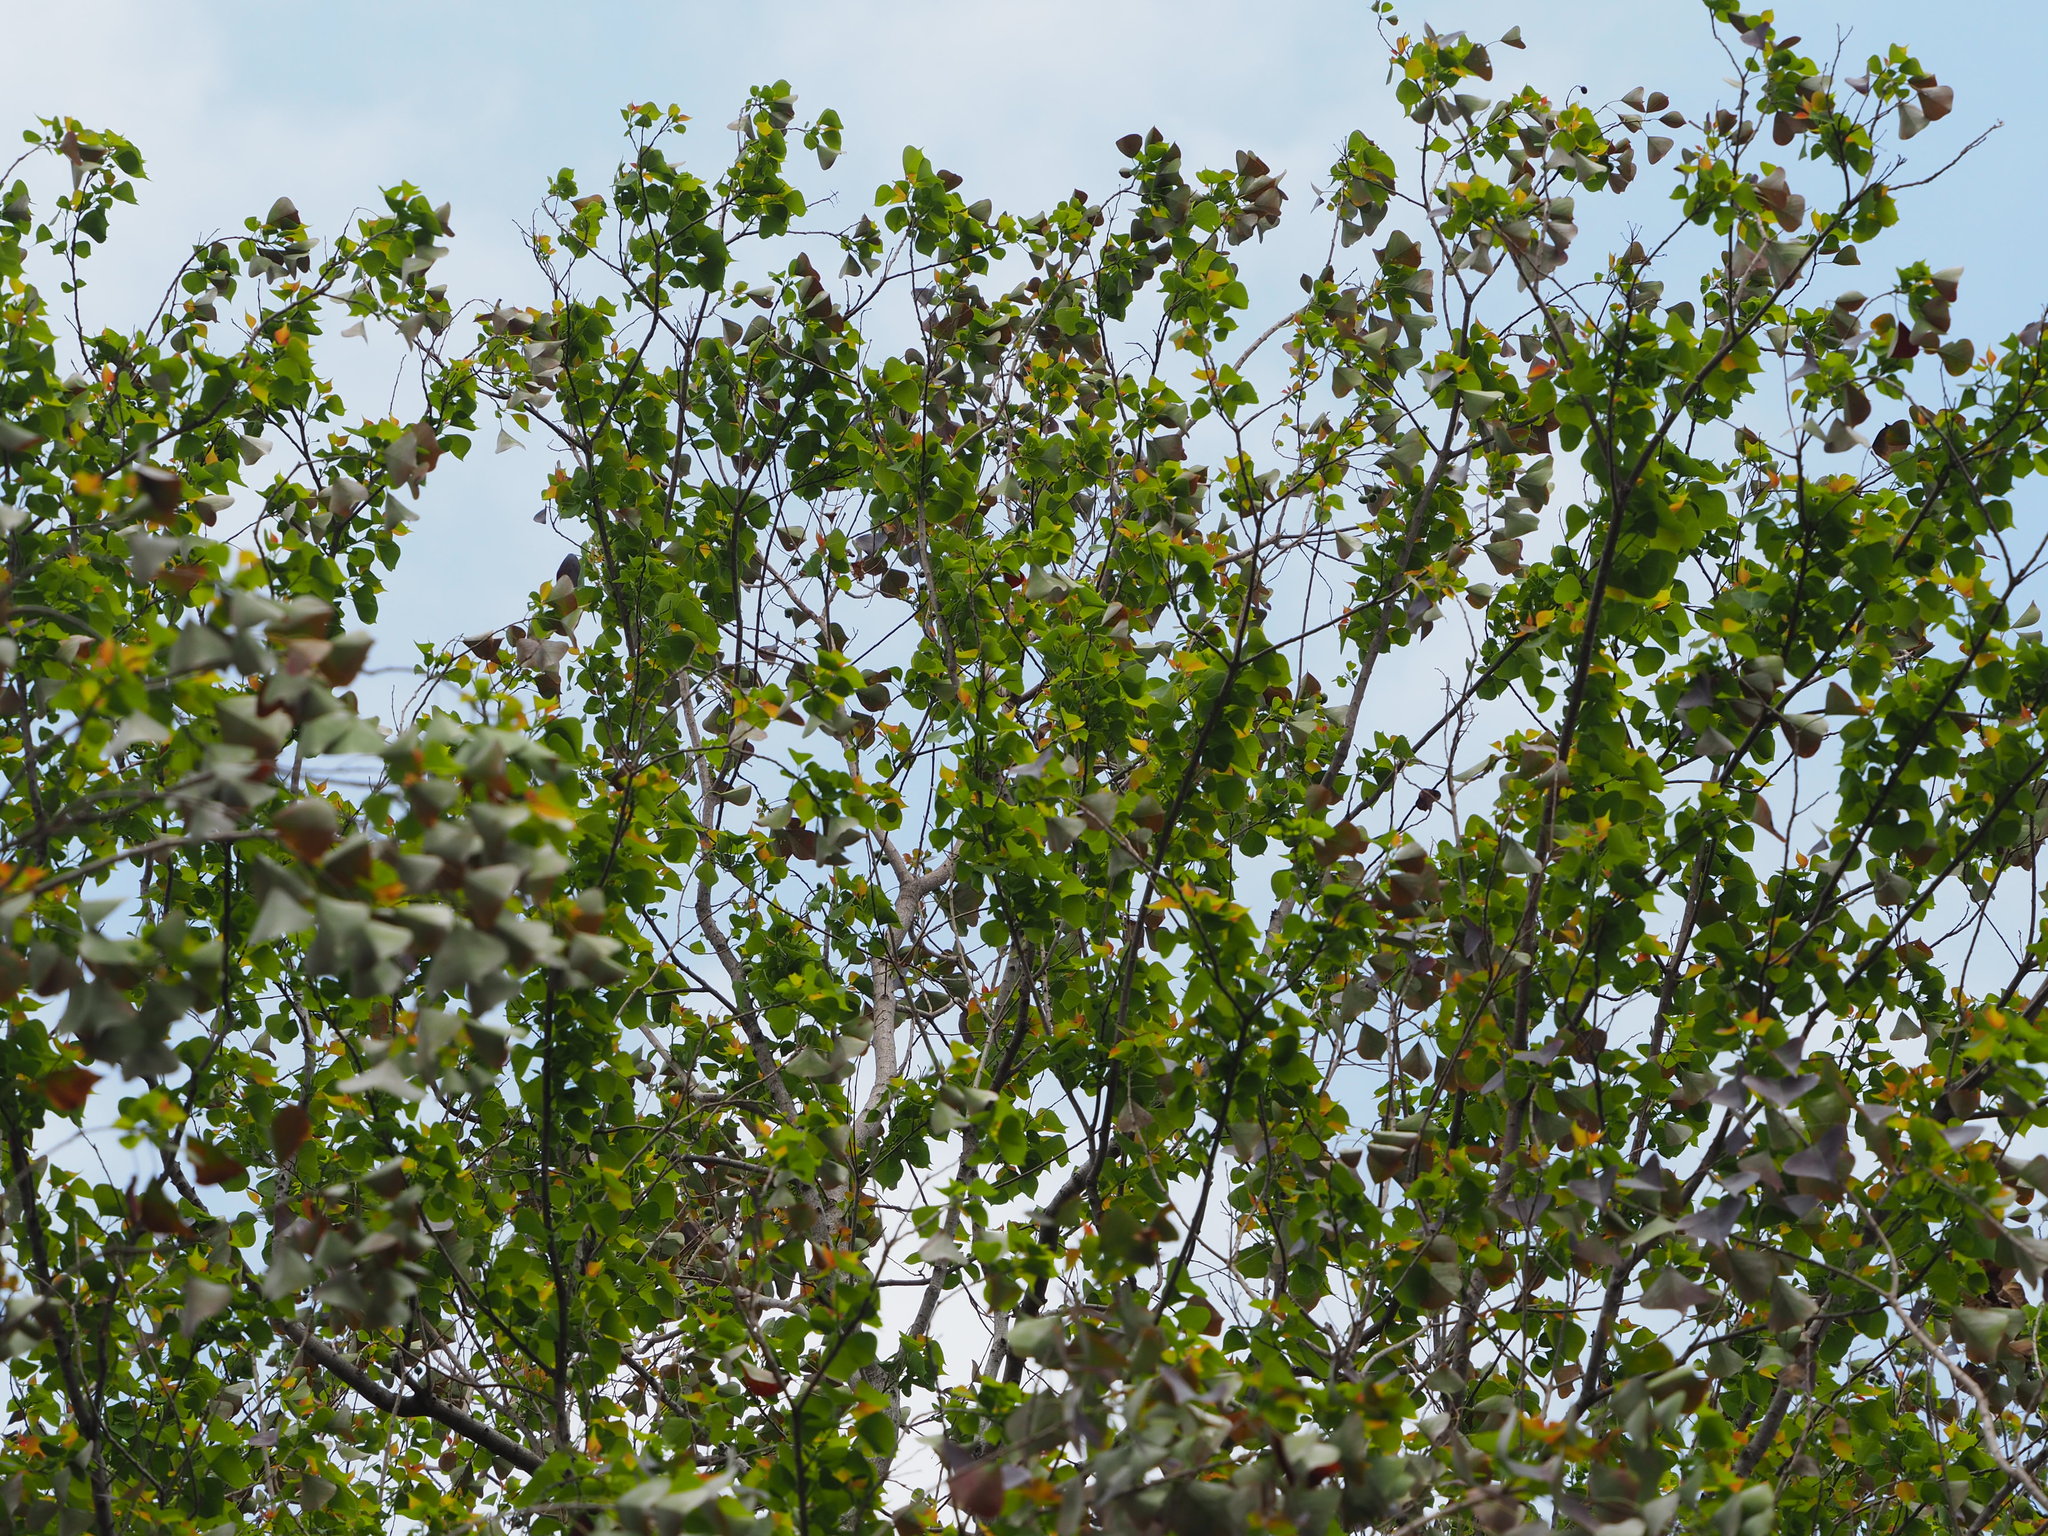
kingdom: Plantae
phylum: Tracheophyta
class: Magnoliopsida
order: Malpighiales
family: Euphorbiaceae
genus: Triadica
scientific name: Triadica sebifera
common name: Chinese tallow
